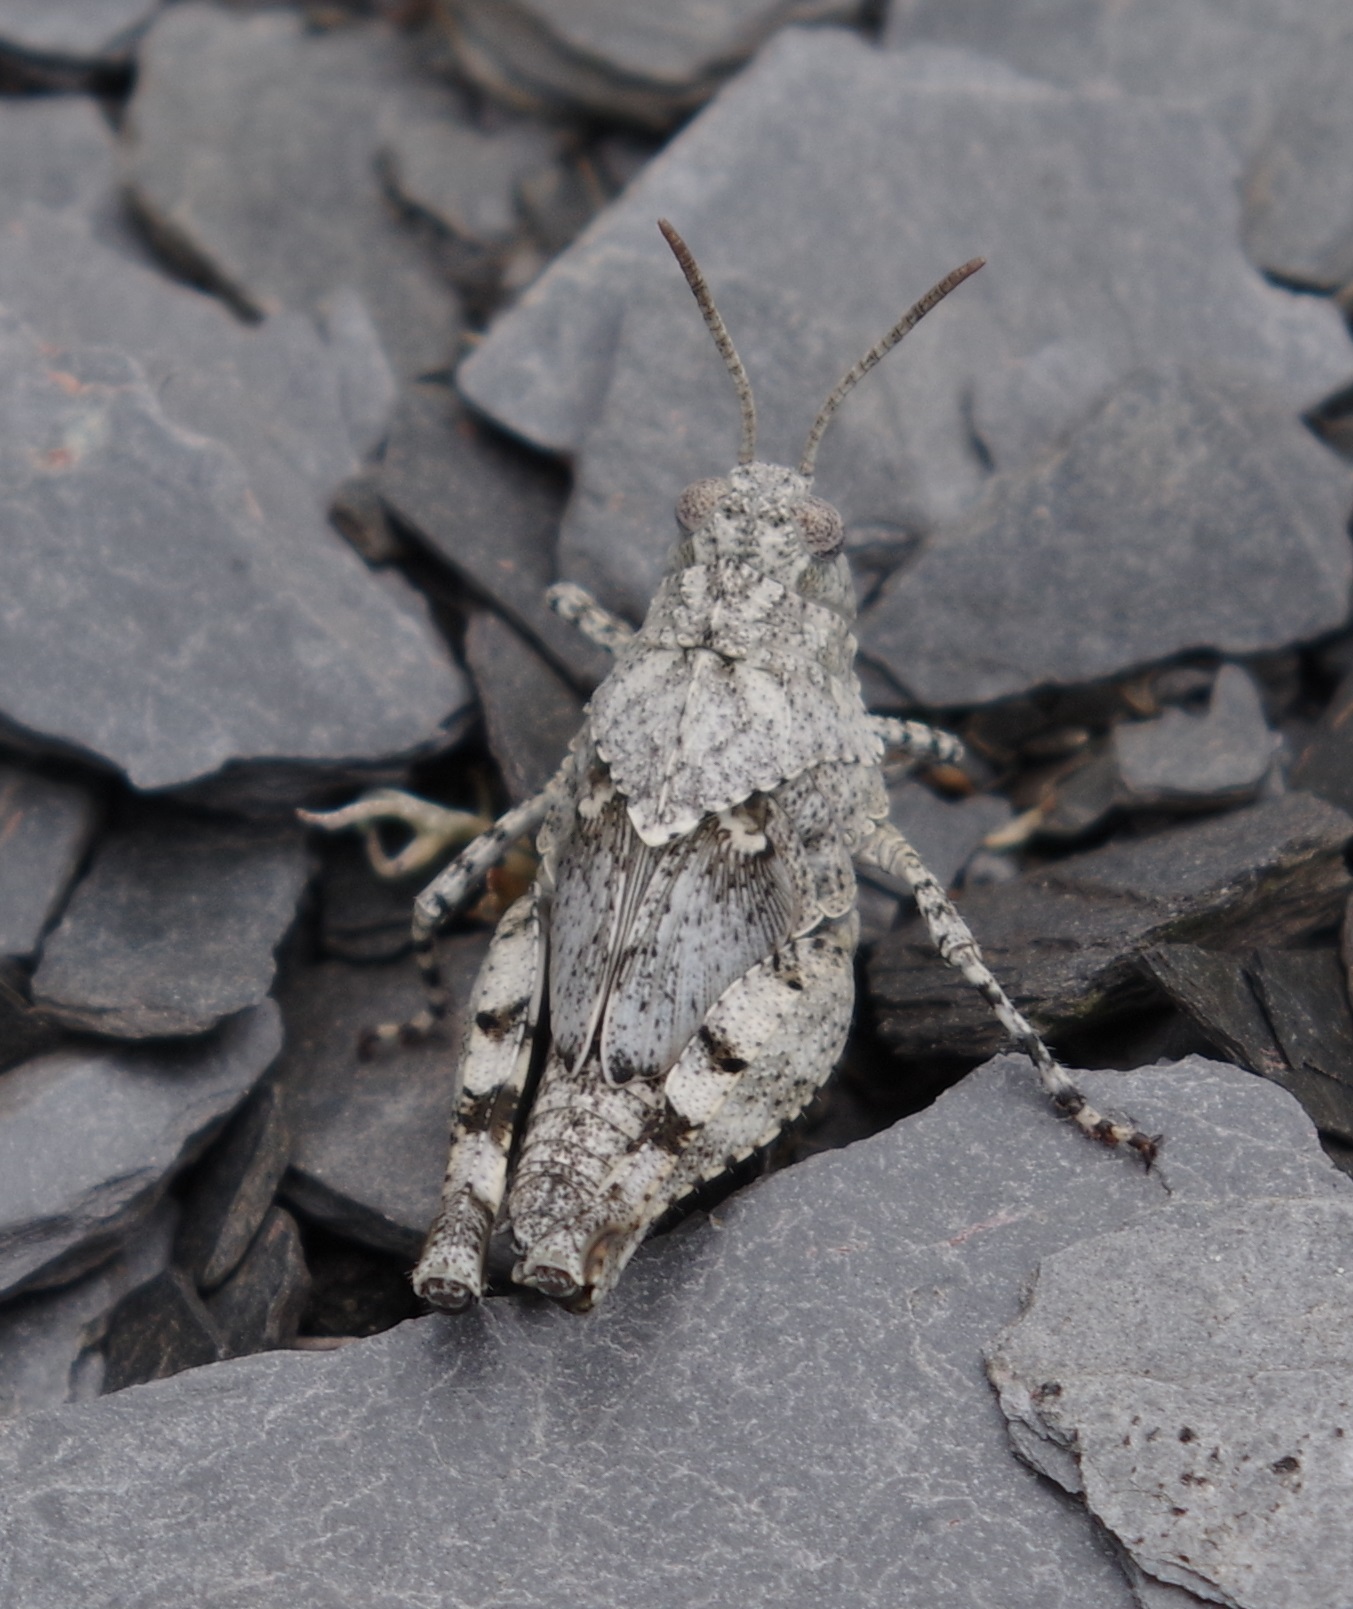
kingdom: Animalia
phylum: Arthropoda
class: Insecta
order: Orthoptera
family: Acrididae
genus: Oedipoda
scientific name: Oedipoda caerulescens
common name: Blue-winged grasshopper
